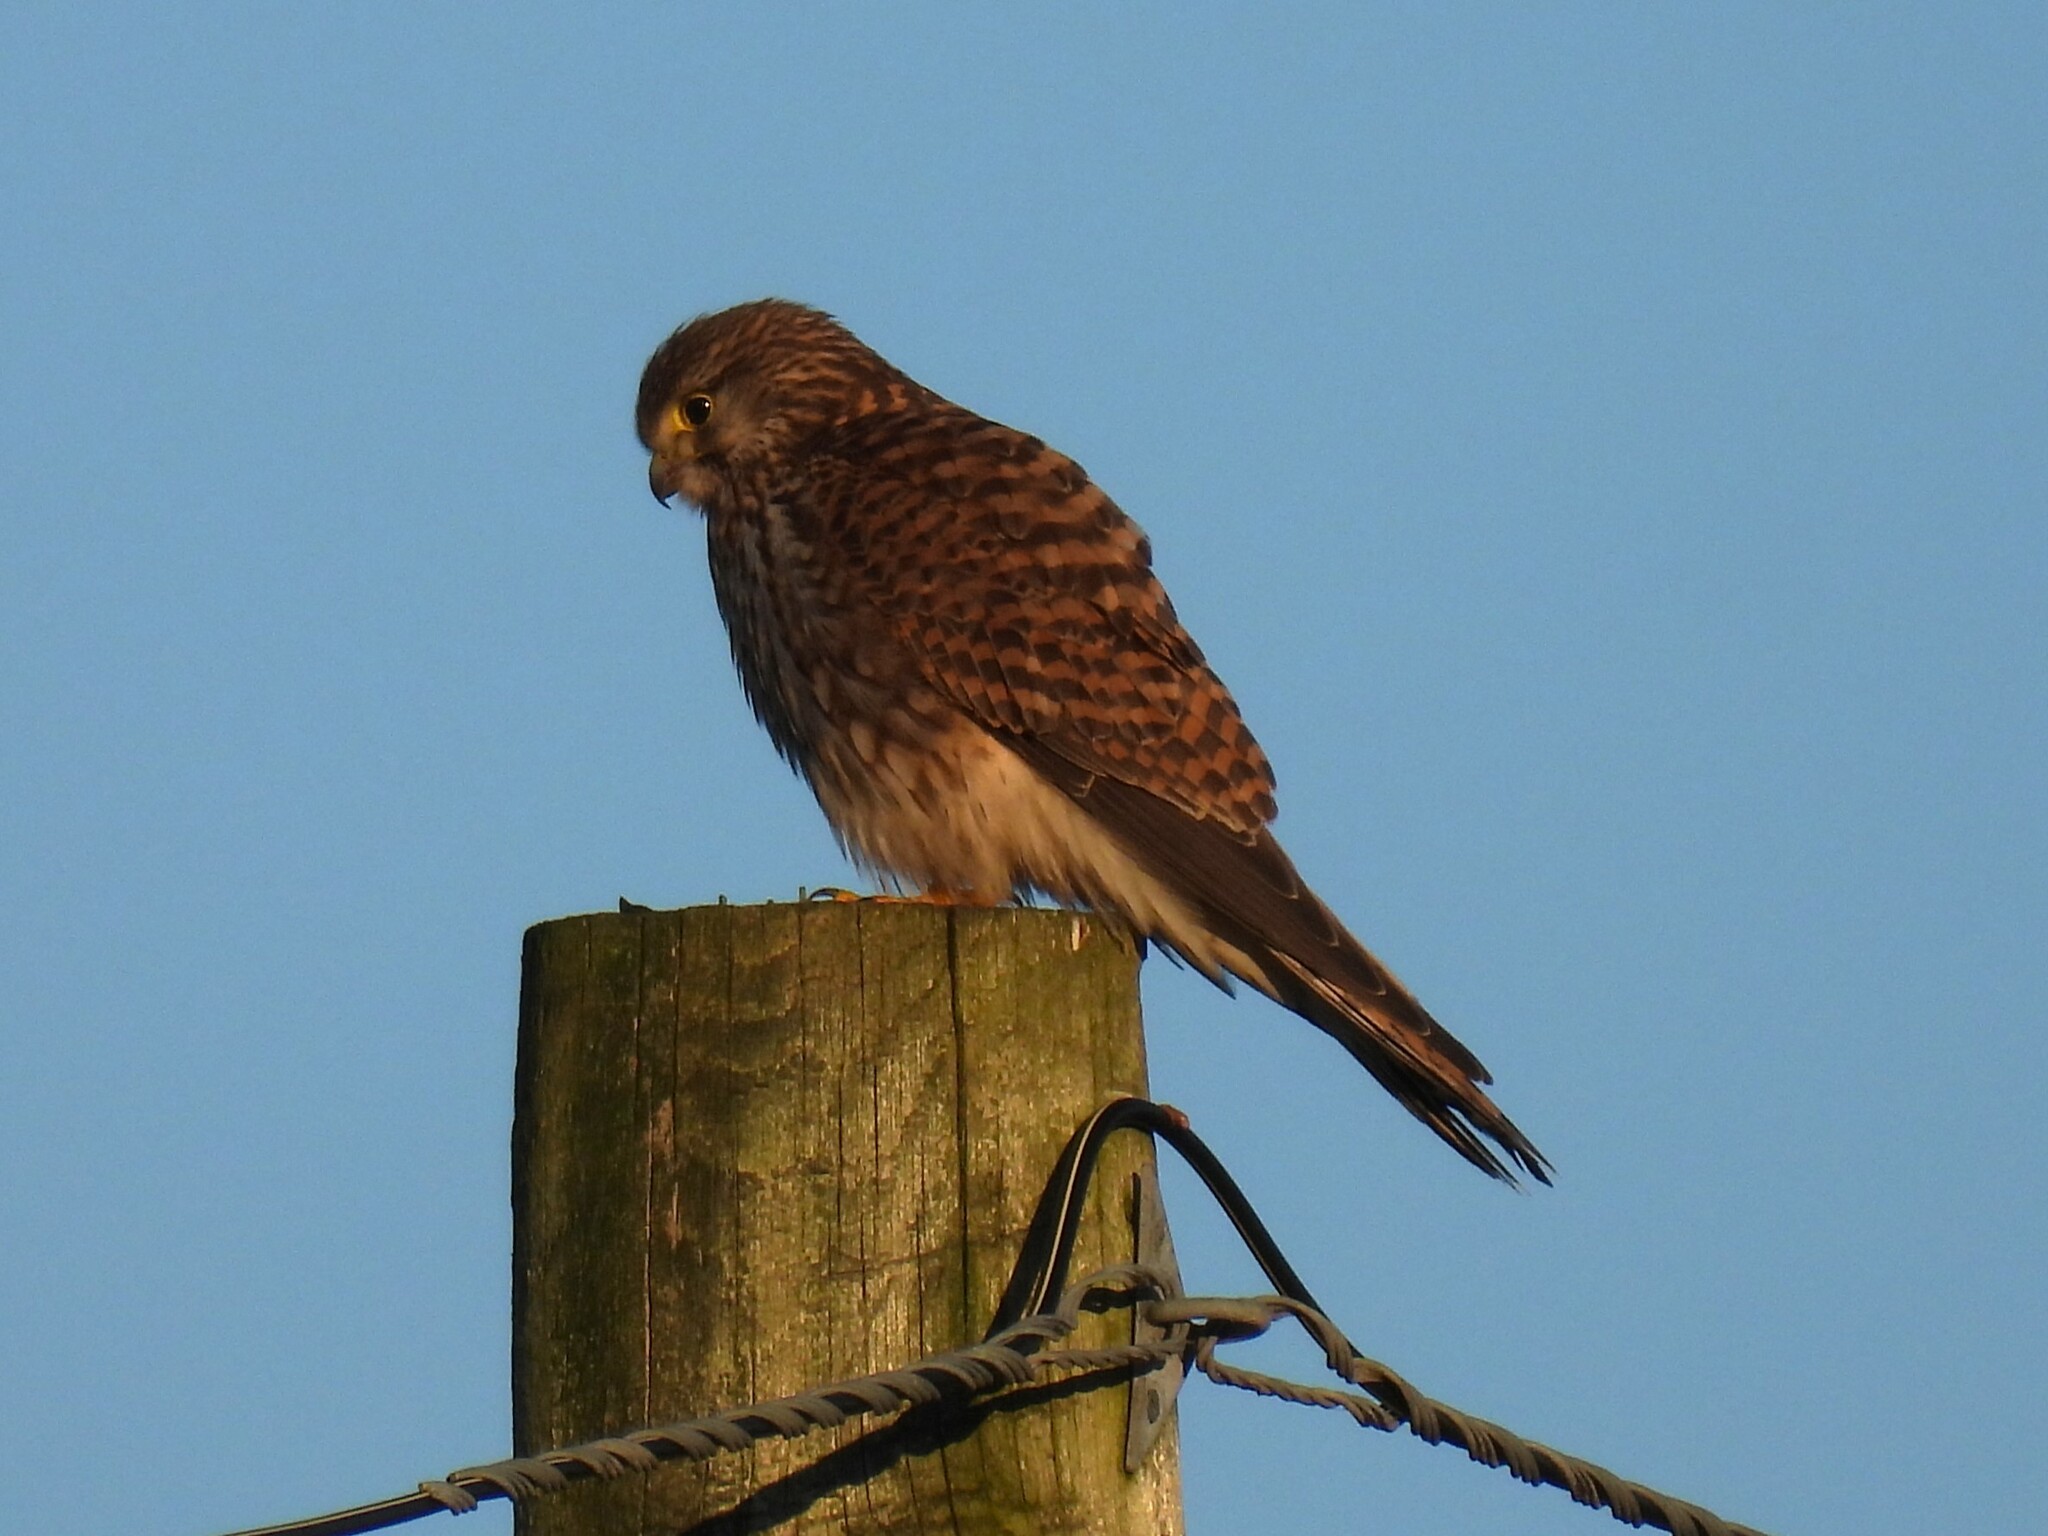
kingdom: Animalia
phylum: Chordata
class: Aves
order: Falconiformes
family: Falconidae
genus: Falco
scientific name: Falco tinnunculus
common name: Common kestrel
